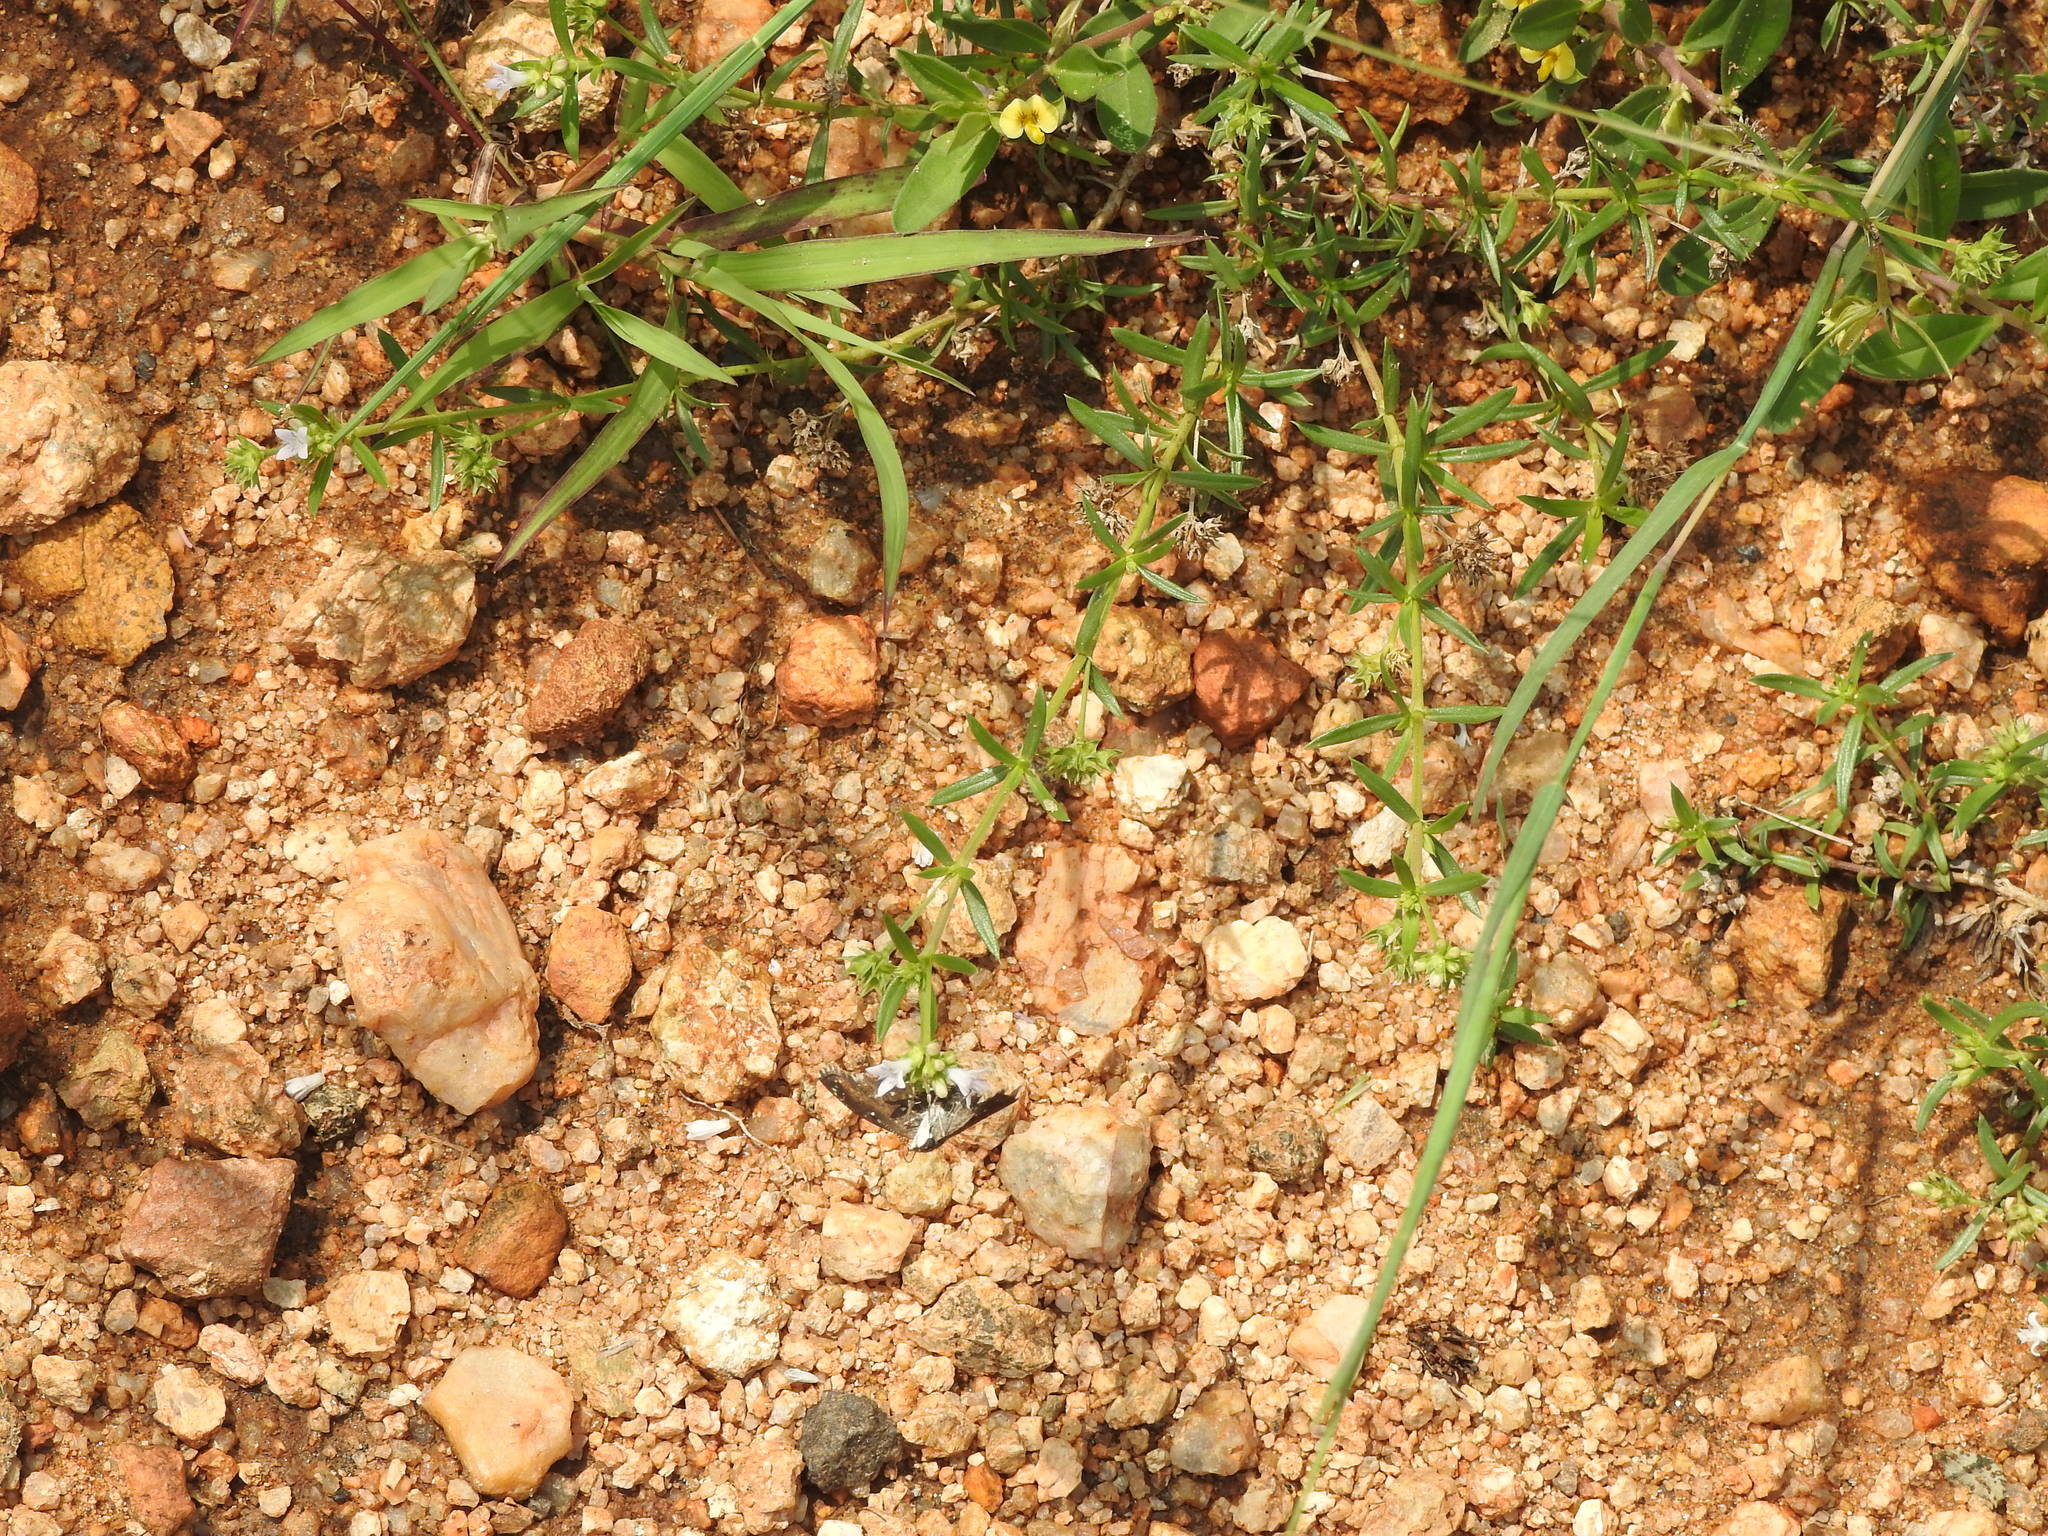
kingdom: Animalia
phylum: Arthropoda
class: Insecta
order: Lepidoptera
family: Hesperiidae
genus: Sarangesa
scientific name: Sarangesa purendra
